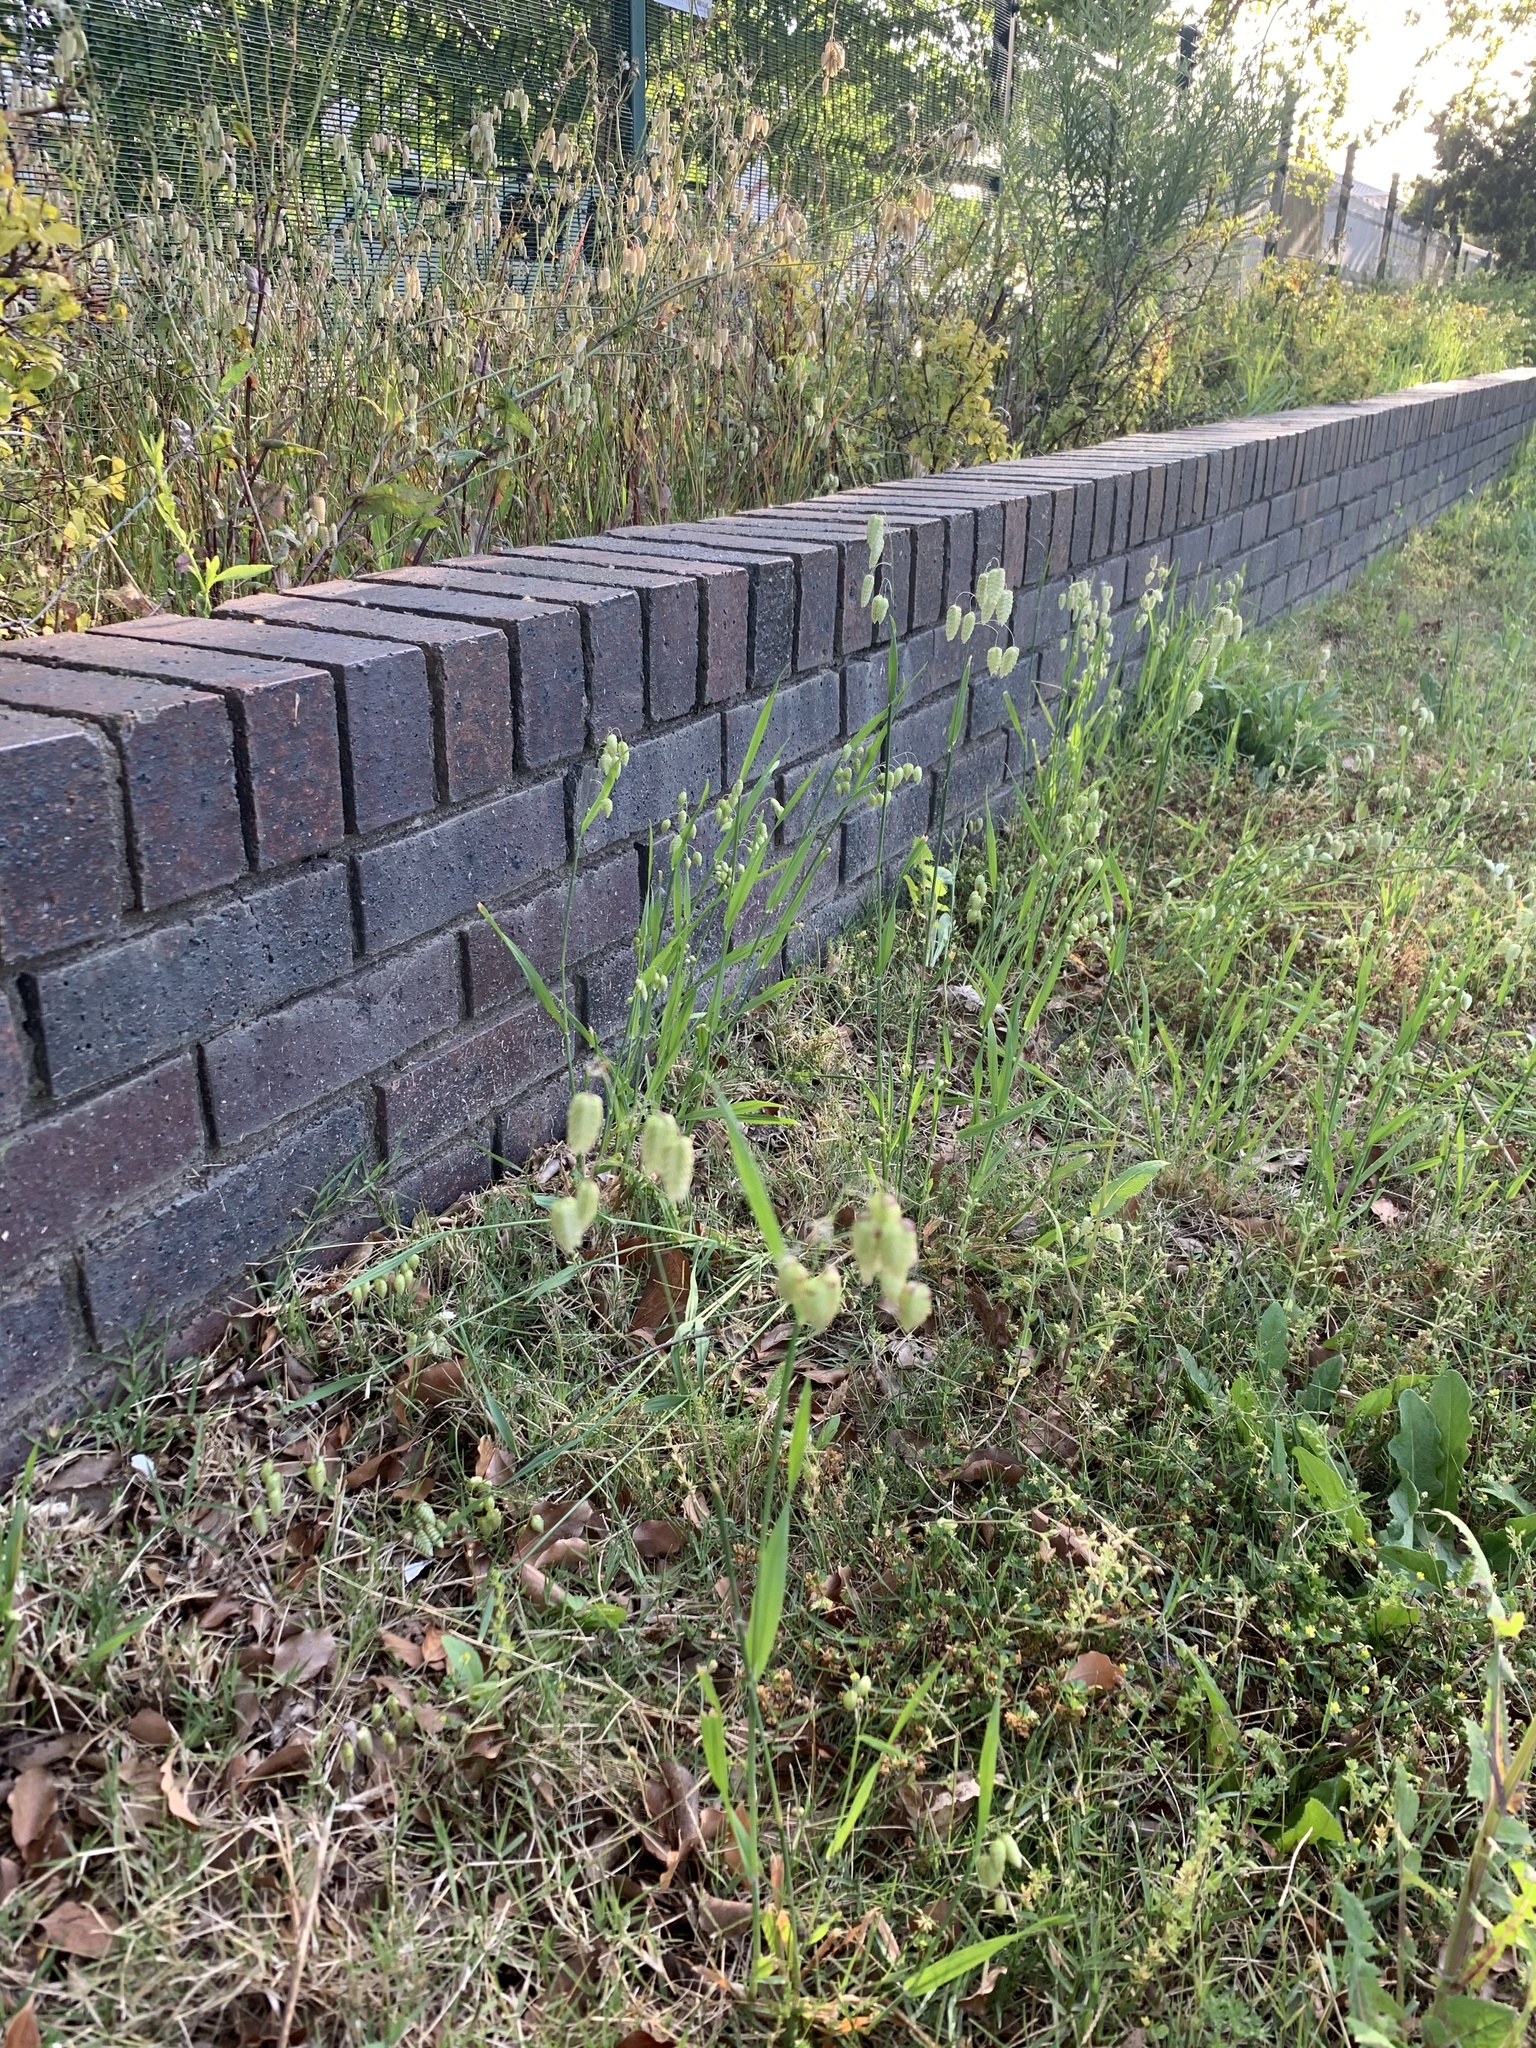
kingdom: Plantae
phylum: Tracheophyta
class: Liliopsida
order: Poales
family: Poaceae
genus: Briza
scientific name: Briza maxima
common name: Big quakinggrass
